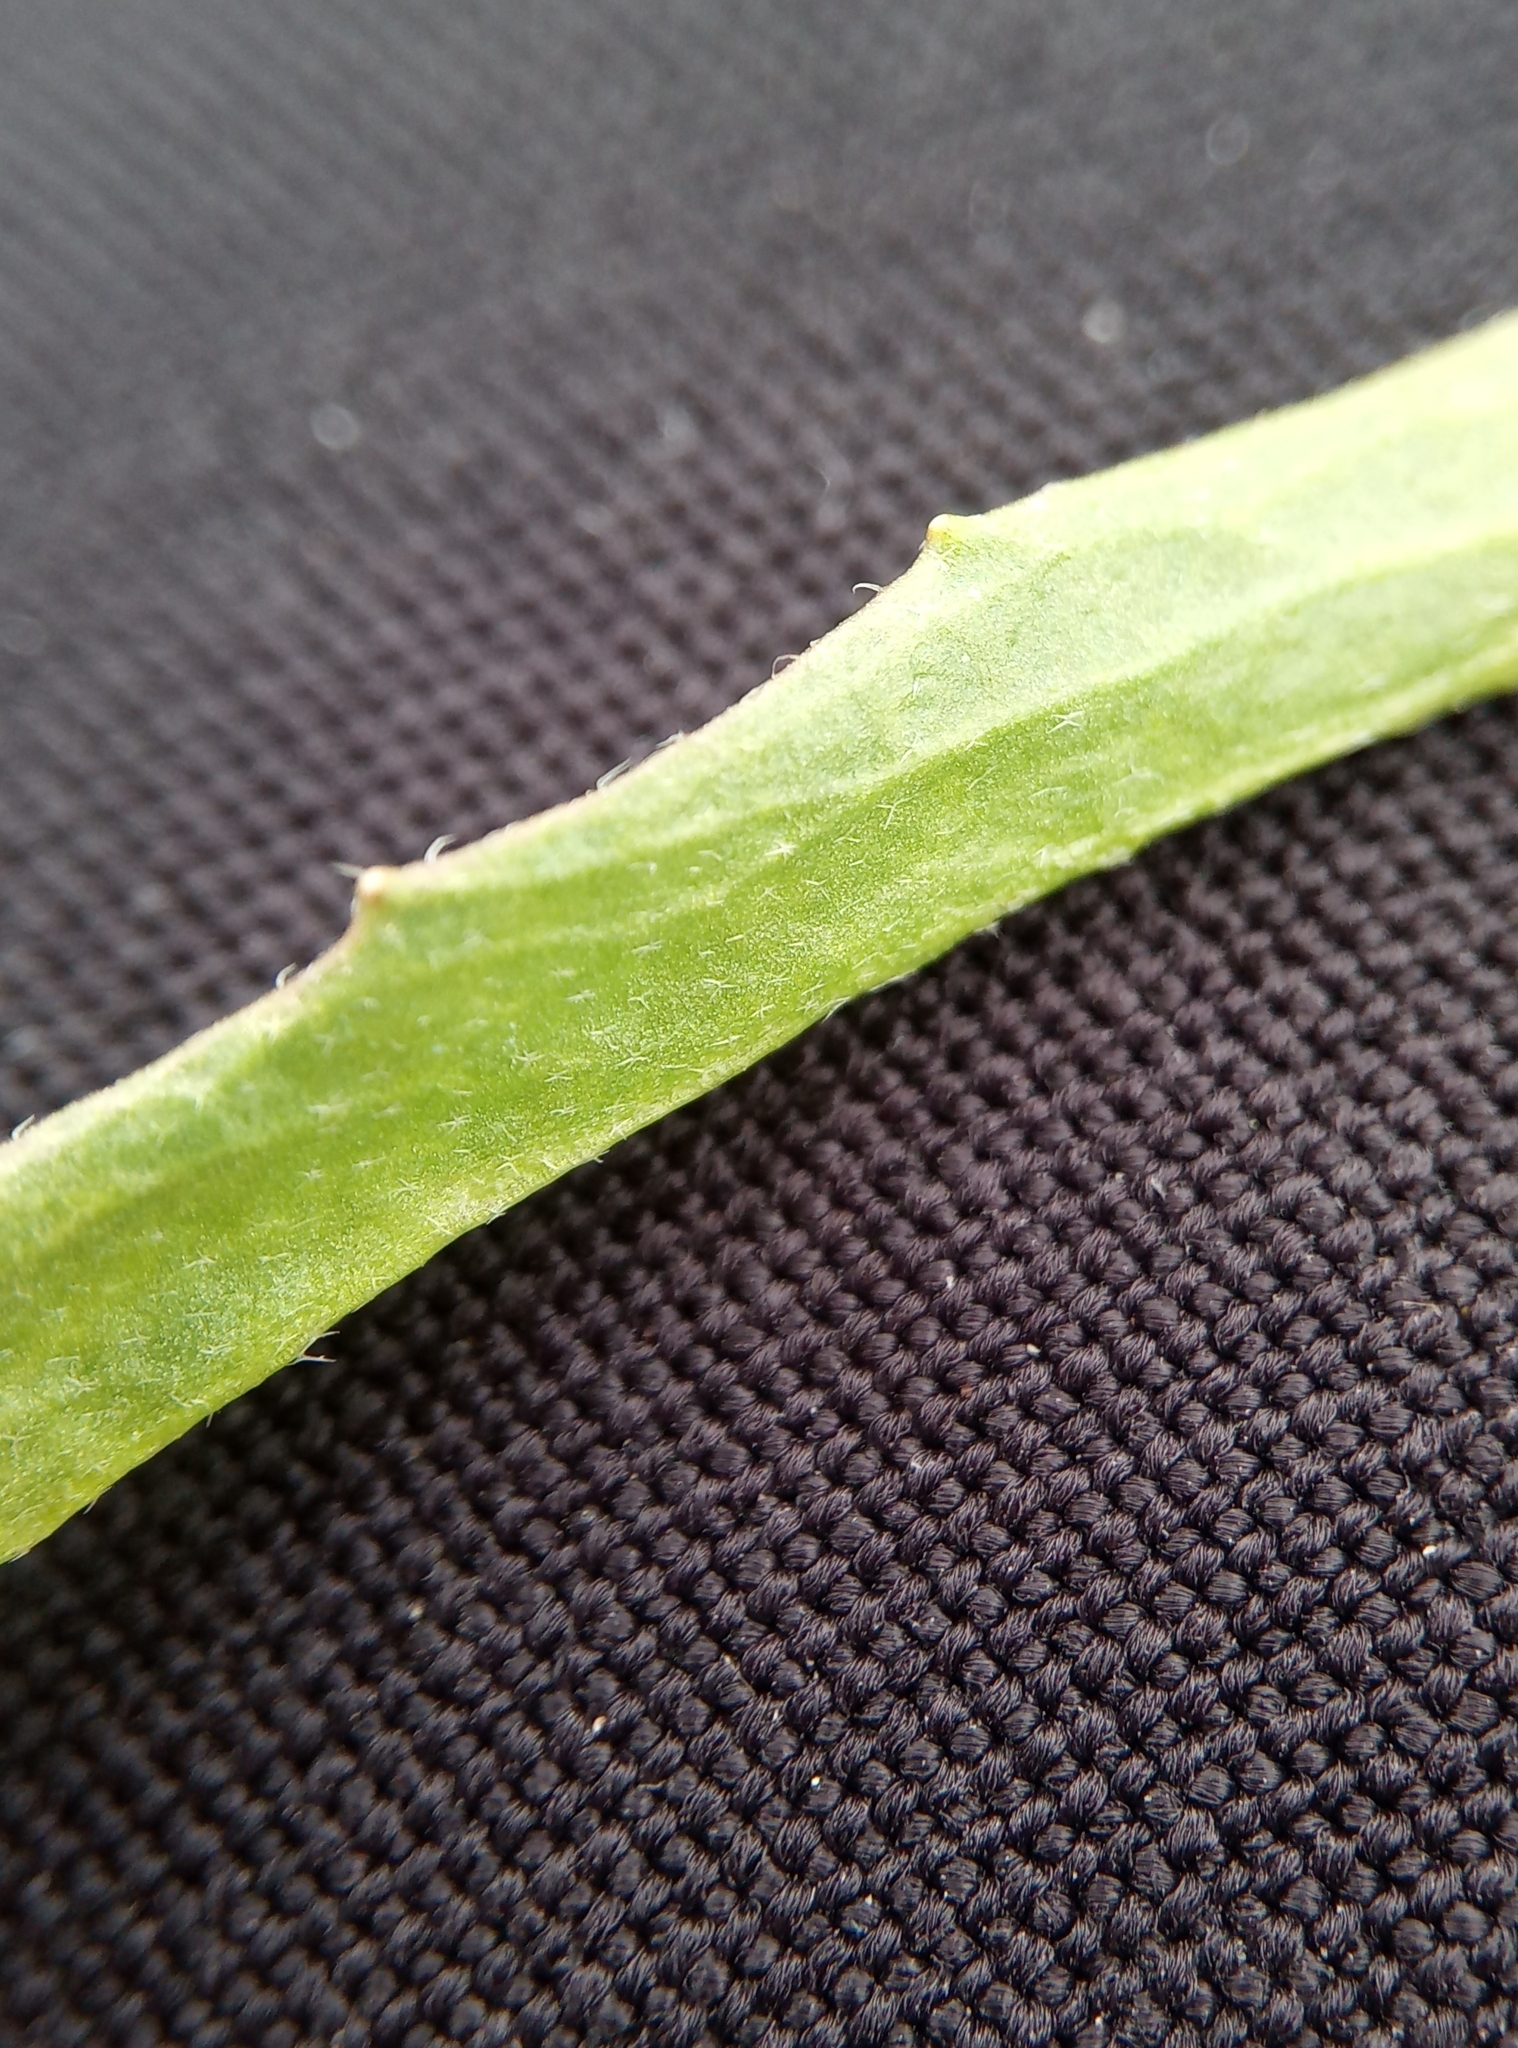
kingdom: Plantae
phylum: Tracheophyta
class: Magnoliopsida
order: Brassicales
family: Brassicaceae
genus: Capsella
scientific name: Capsella bursa-pastoris
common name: Shepherd's purse
